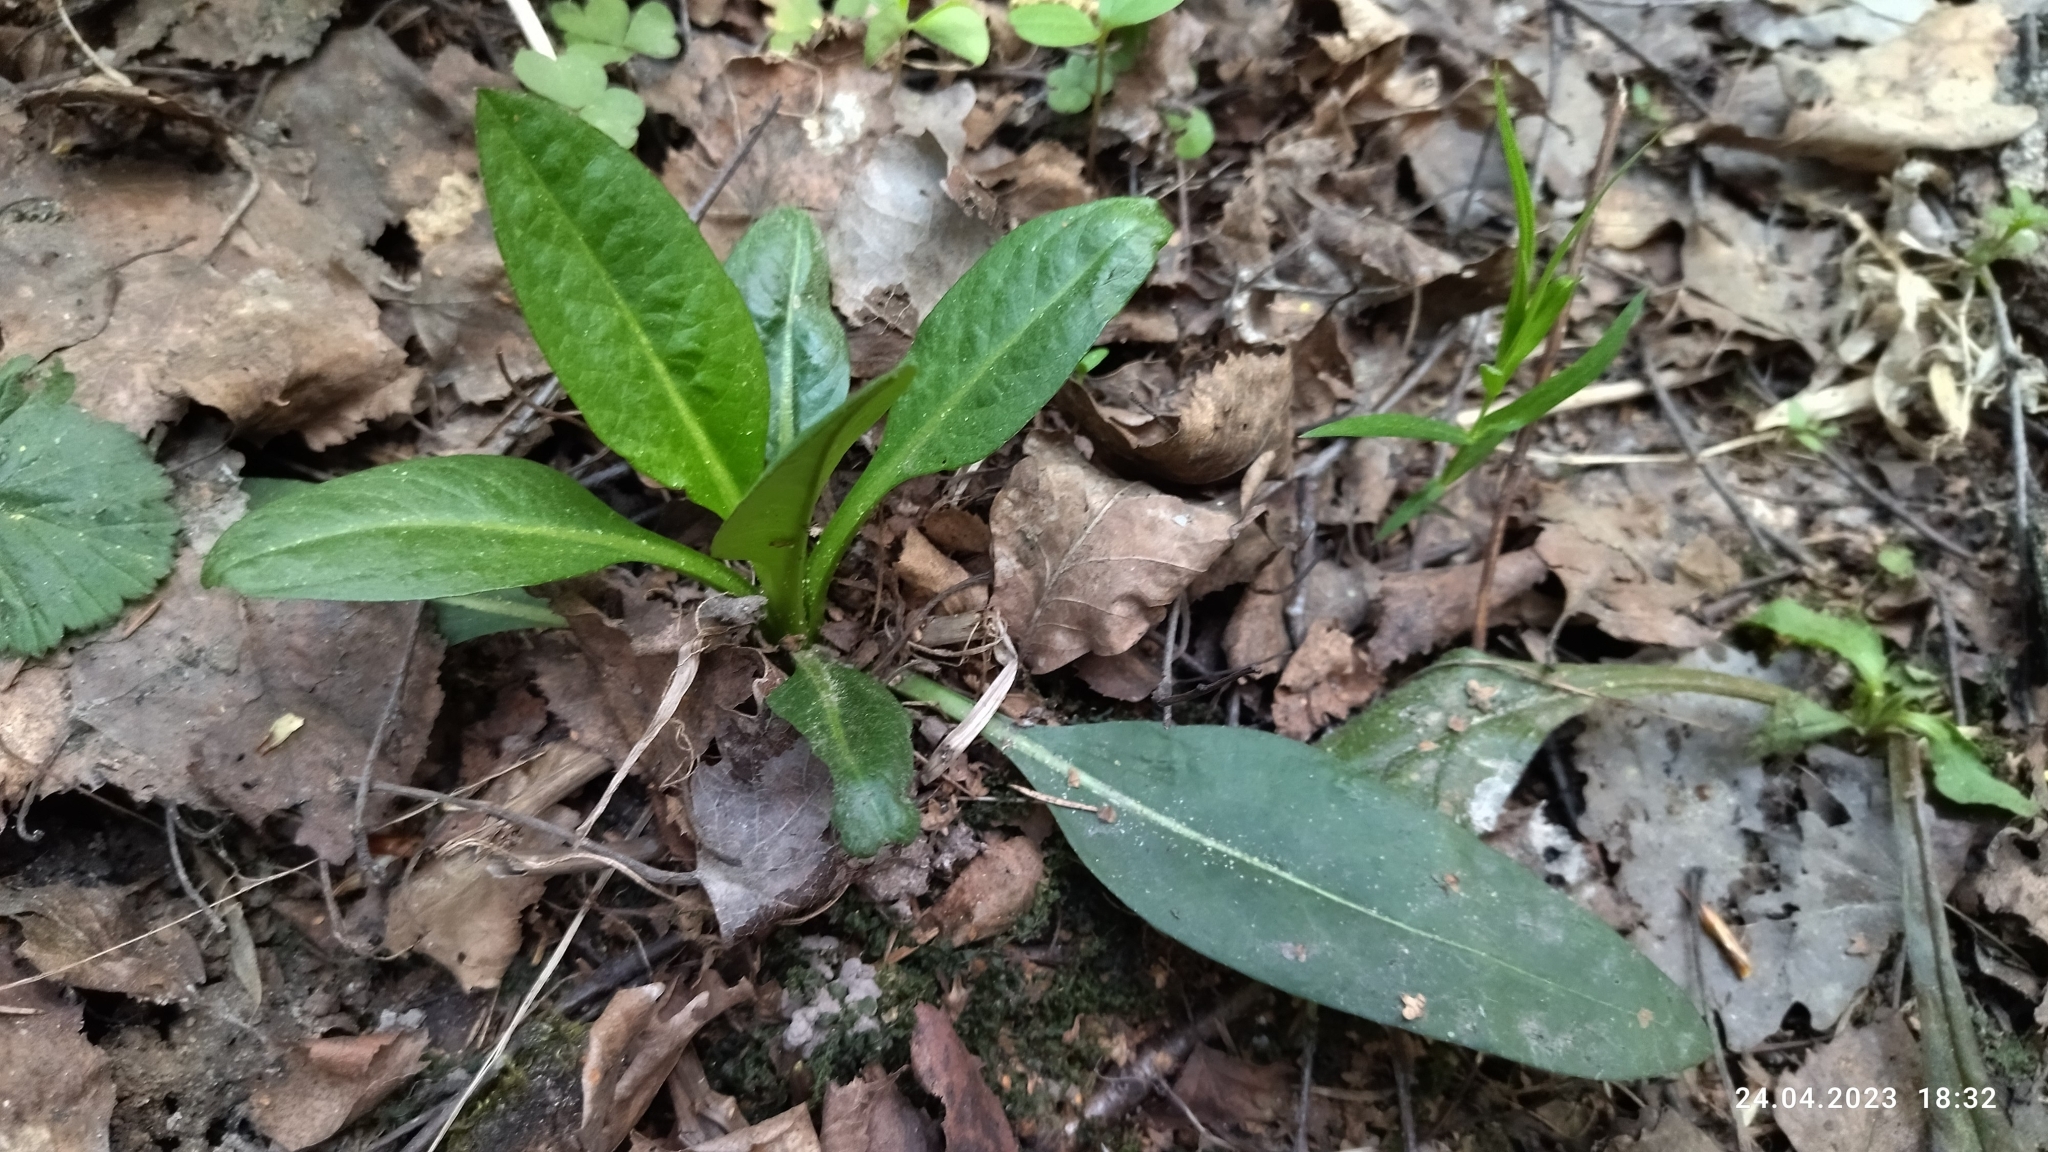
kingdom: Plantae
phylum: Tracheophyta
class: Magnoliopsida
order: Dipsacales
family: Caprifoliaceae
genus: Succisa
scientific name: Succisa pratensis
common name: Devil's-bit
